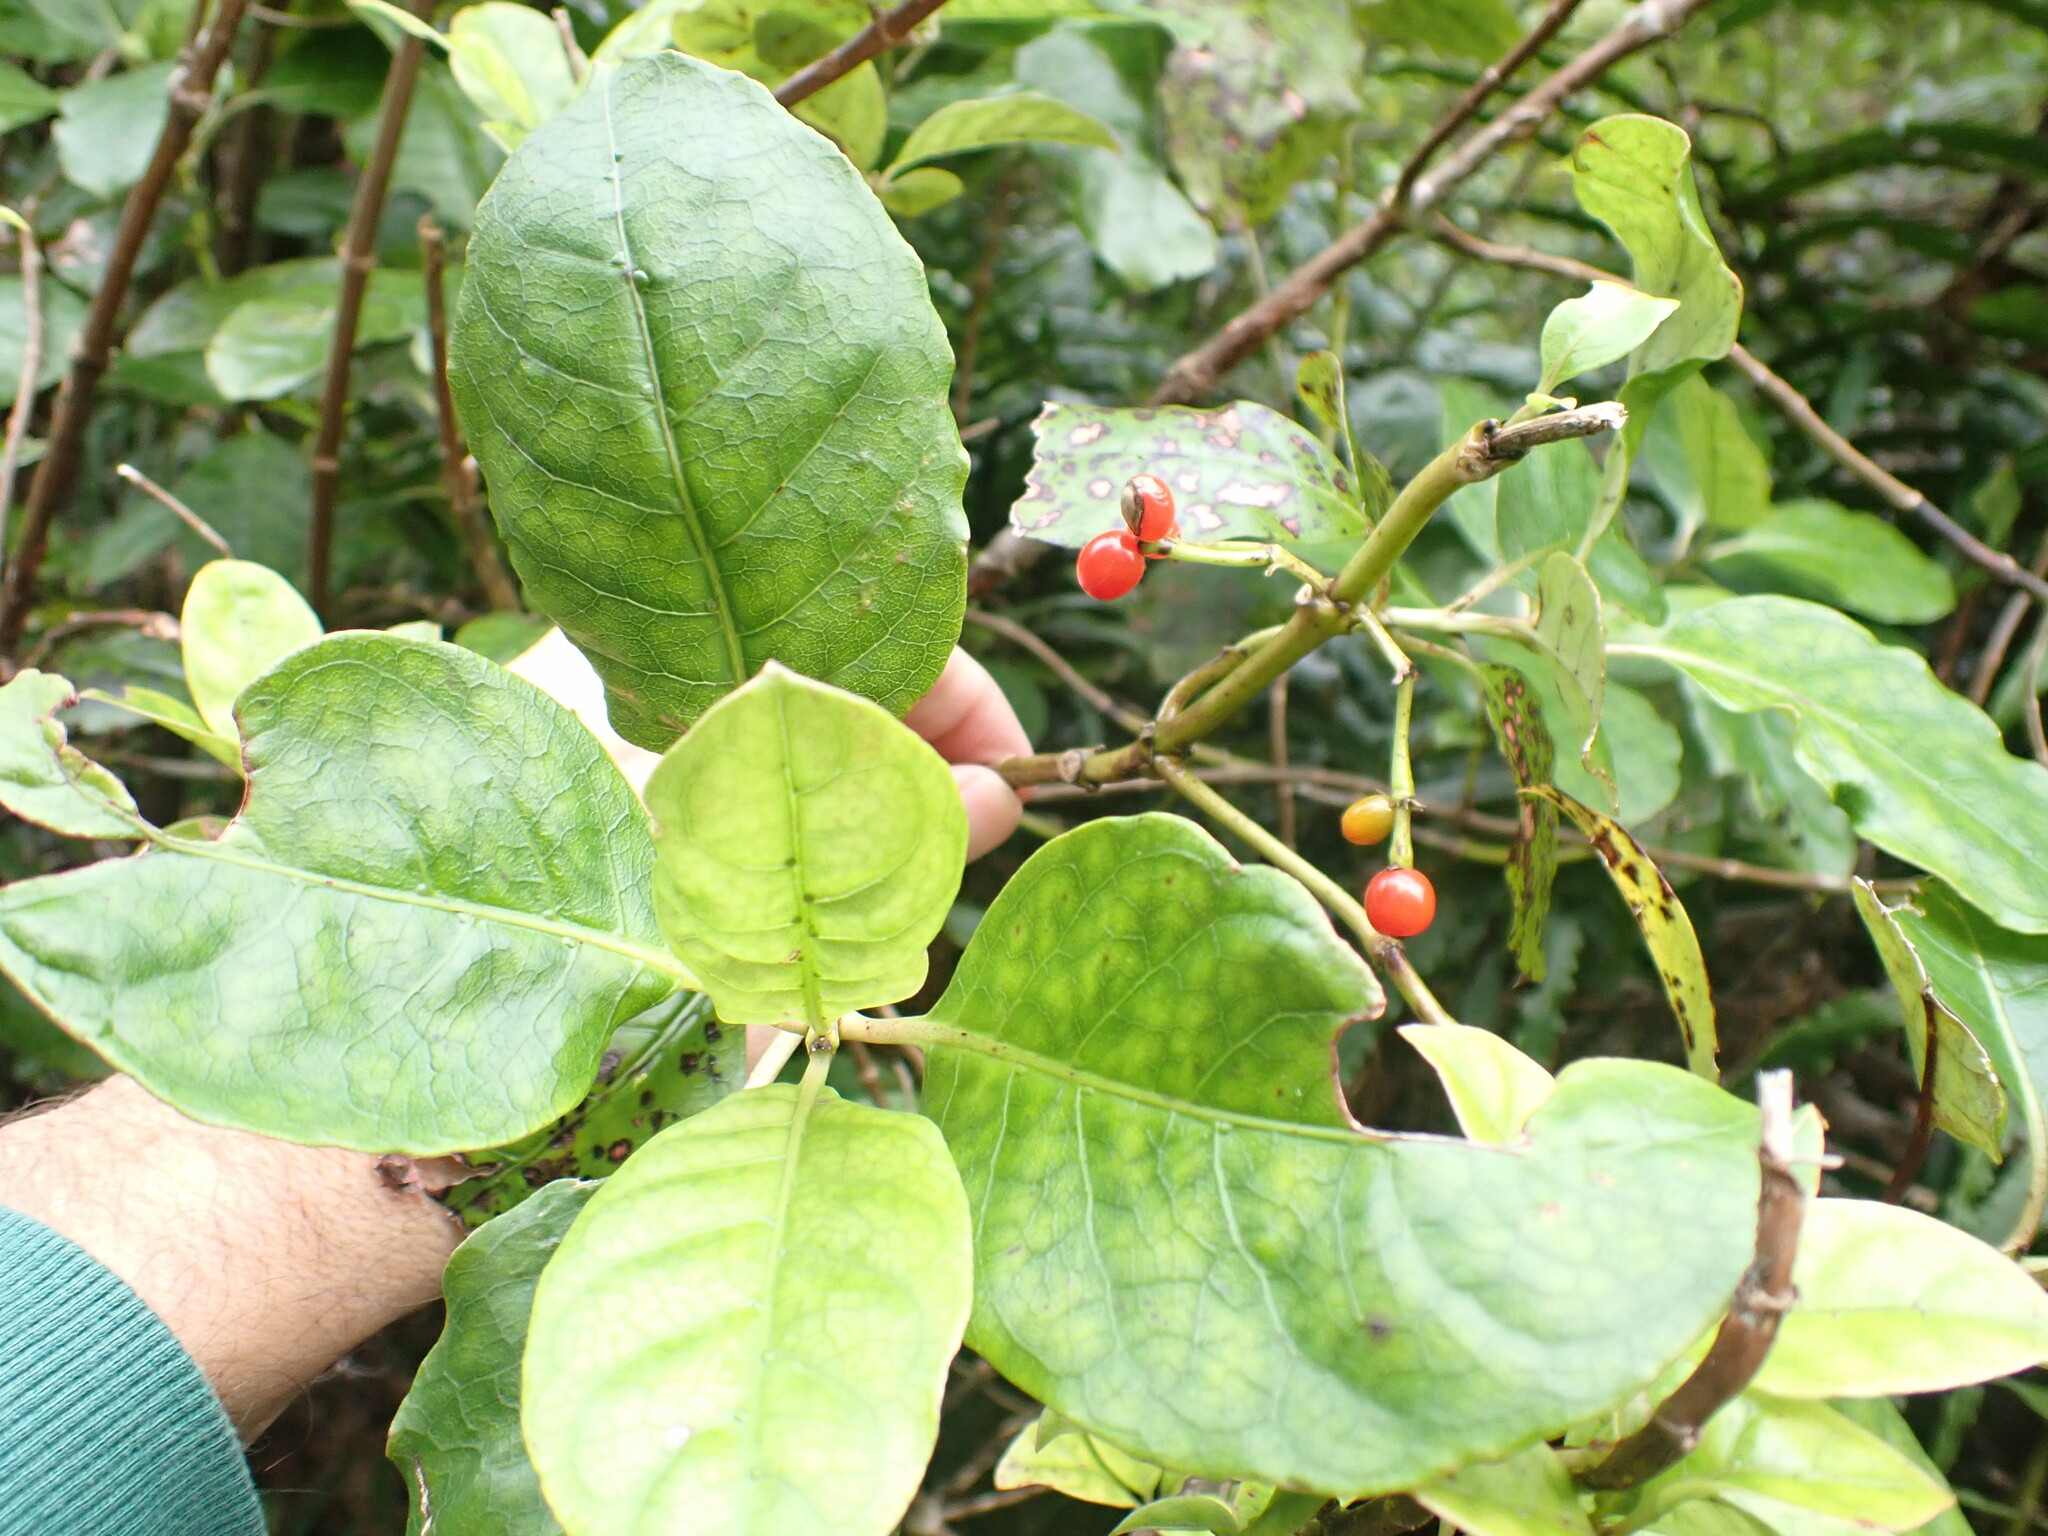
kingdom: Plantae
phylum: Tracheophyta
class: Magnoliopsida
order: Gentianales
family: Rubiaceae
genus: Coprosma
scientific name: Coprosma autumnalis
